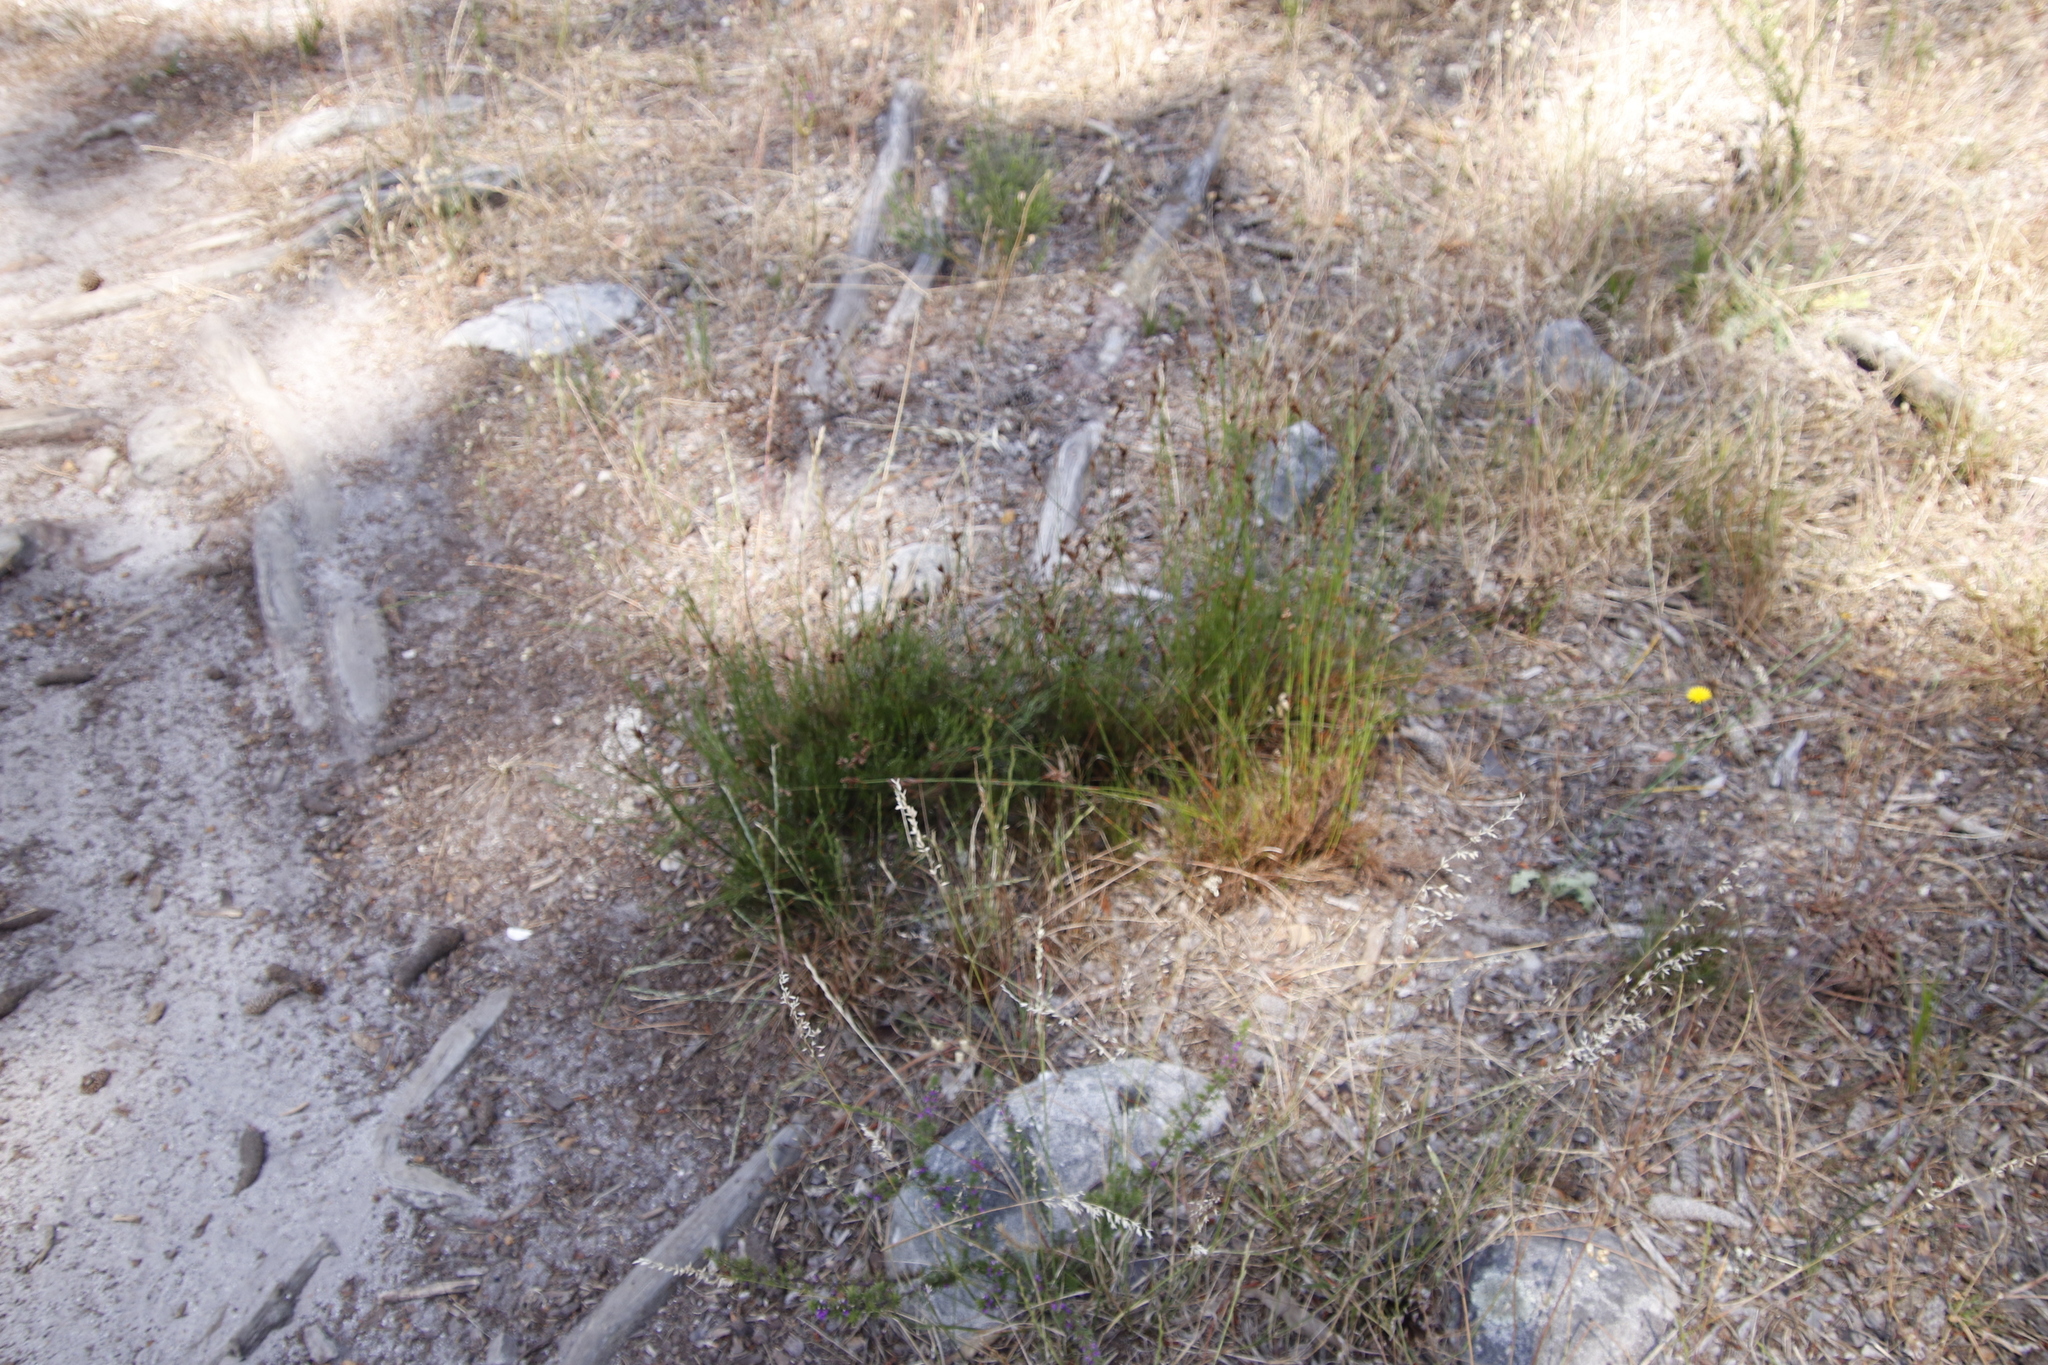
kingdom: Plantae
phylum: Tracheophyta
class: Liliopsida
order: Poales
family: Restionaceae
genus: Restio
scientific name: Restio capensis
